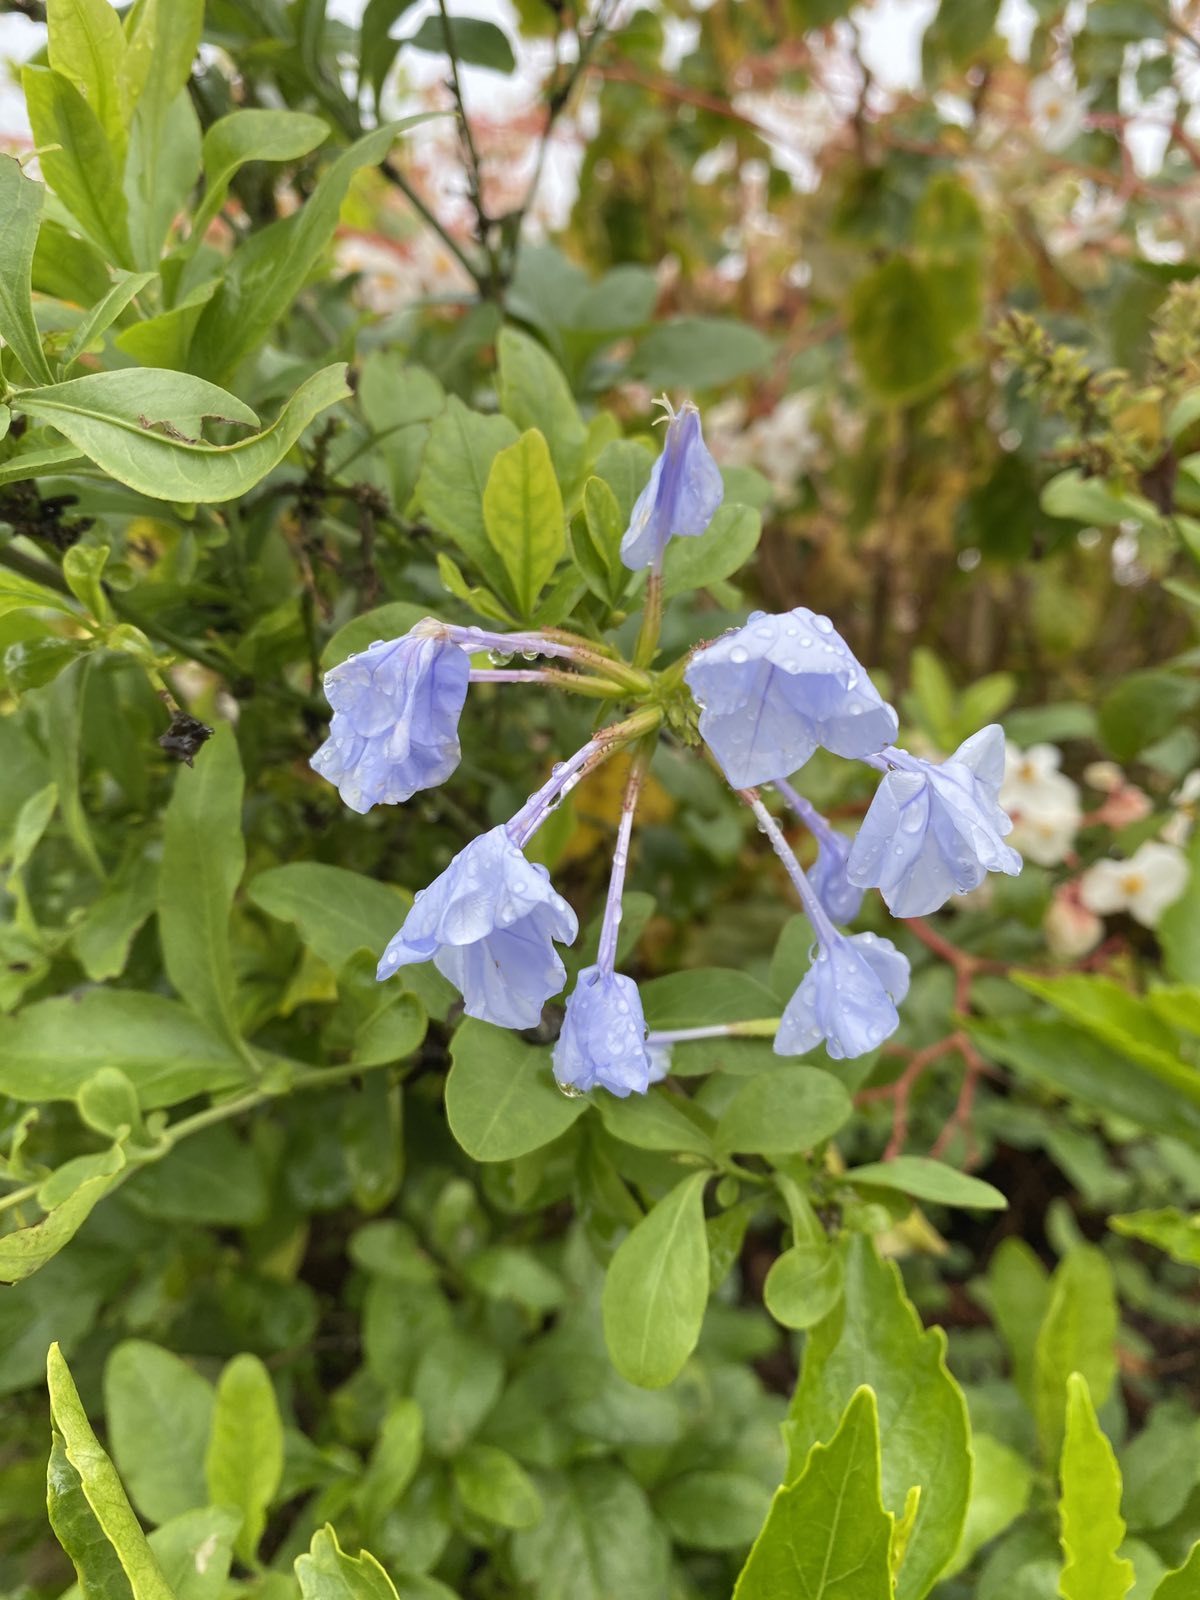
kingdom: Plantae
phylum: Tracheophyta
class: Magnoliopsida
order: Caryophyllales
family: Plumbaginaceae
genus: Plumbago
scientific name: Plumbago auriculata
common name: Cape leadwort
